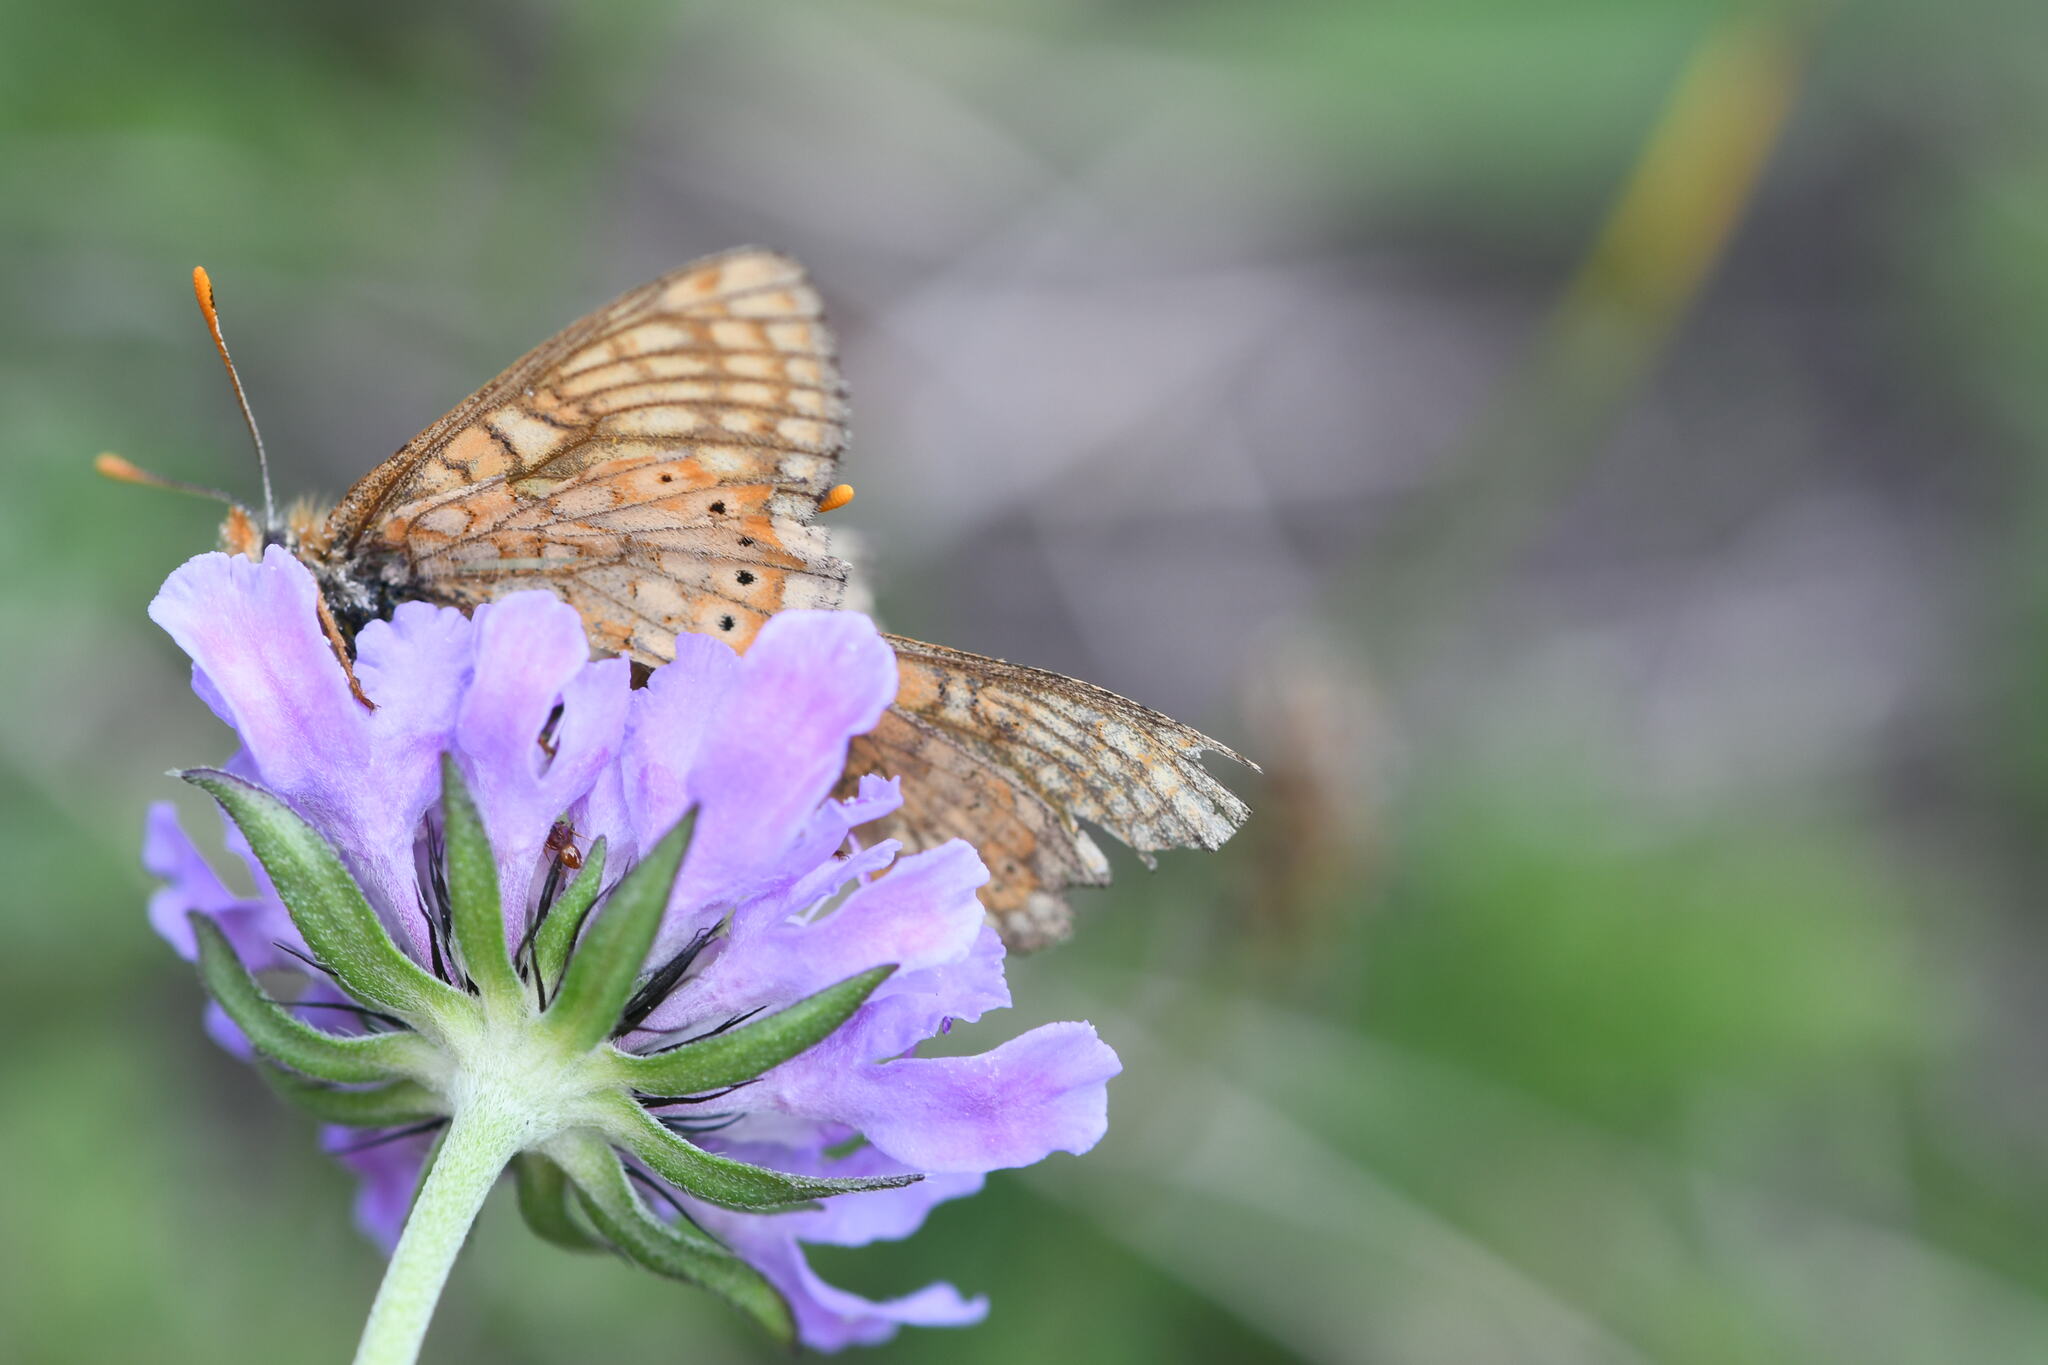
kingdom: Animalia
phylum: Arthropoda
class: Insecta
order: Lepidoptera
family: Nymphalidae
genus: Euphydryas
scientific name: Euphydryas aurinia
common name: Marsh fritillary
